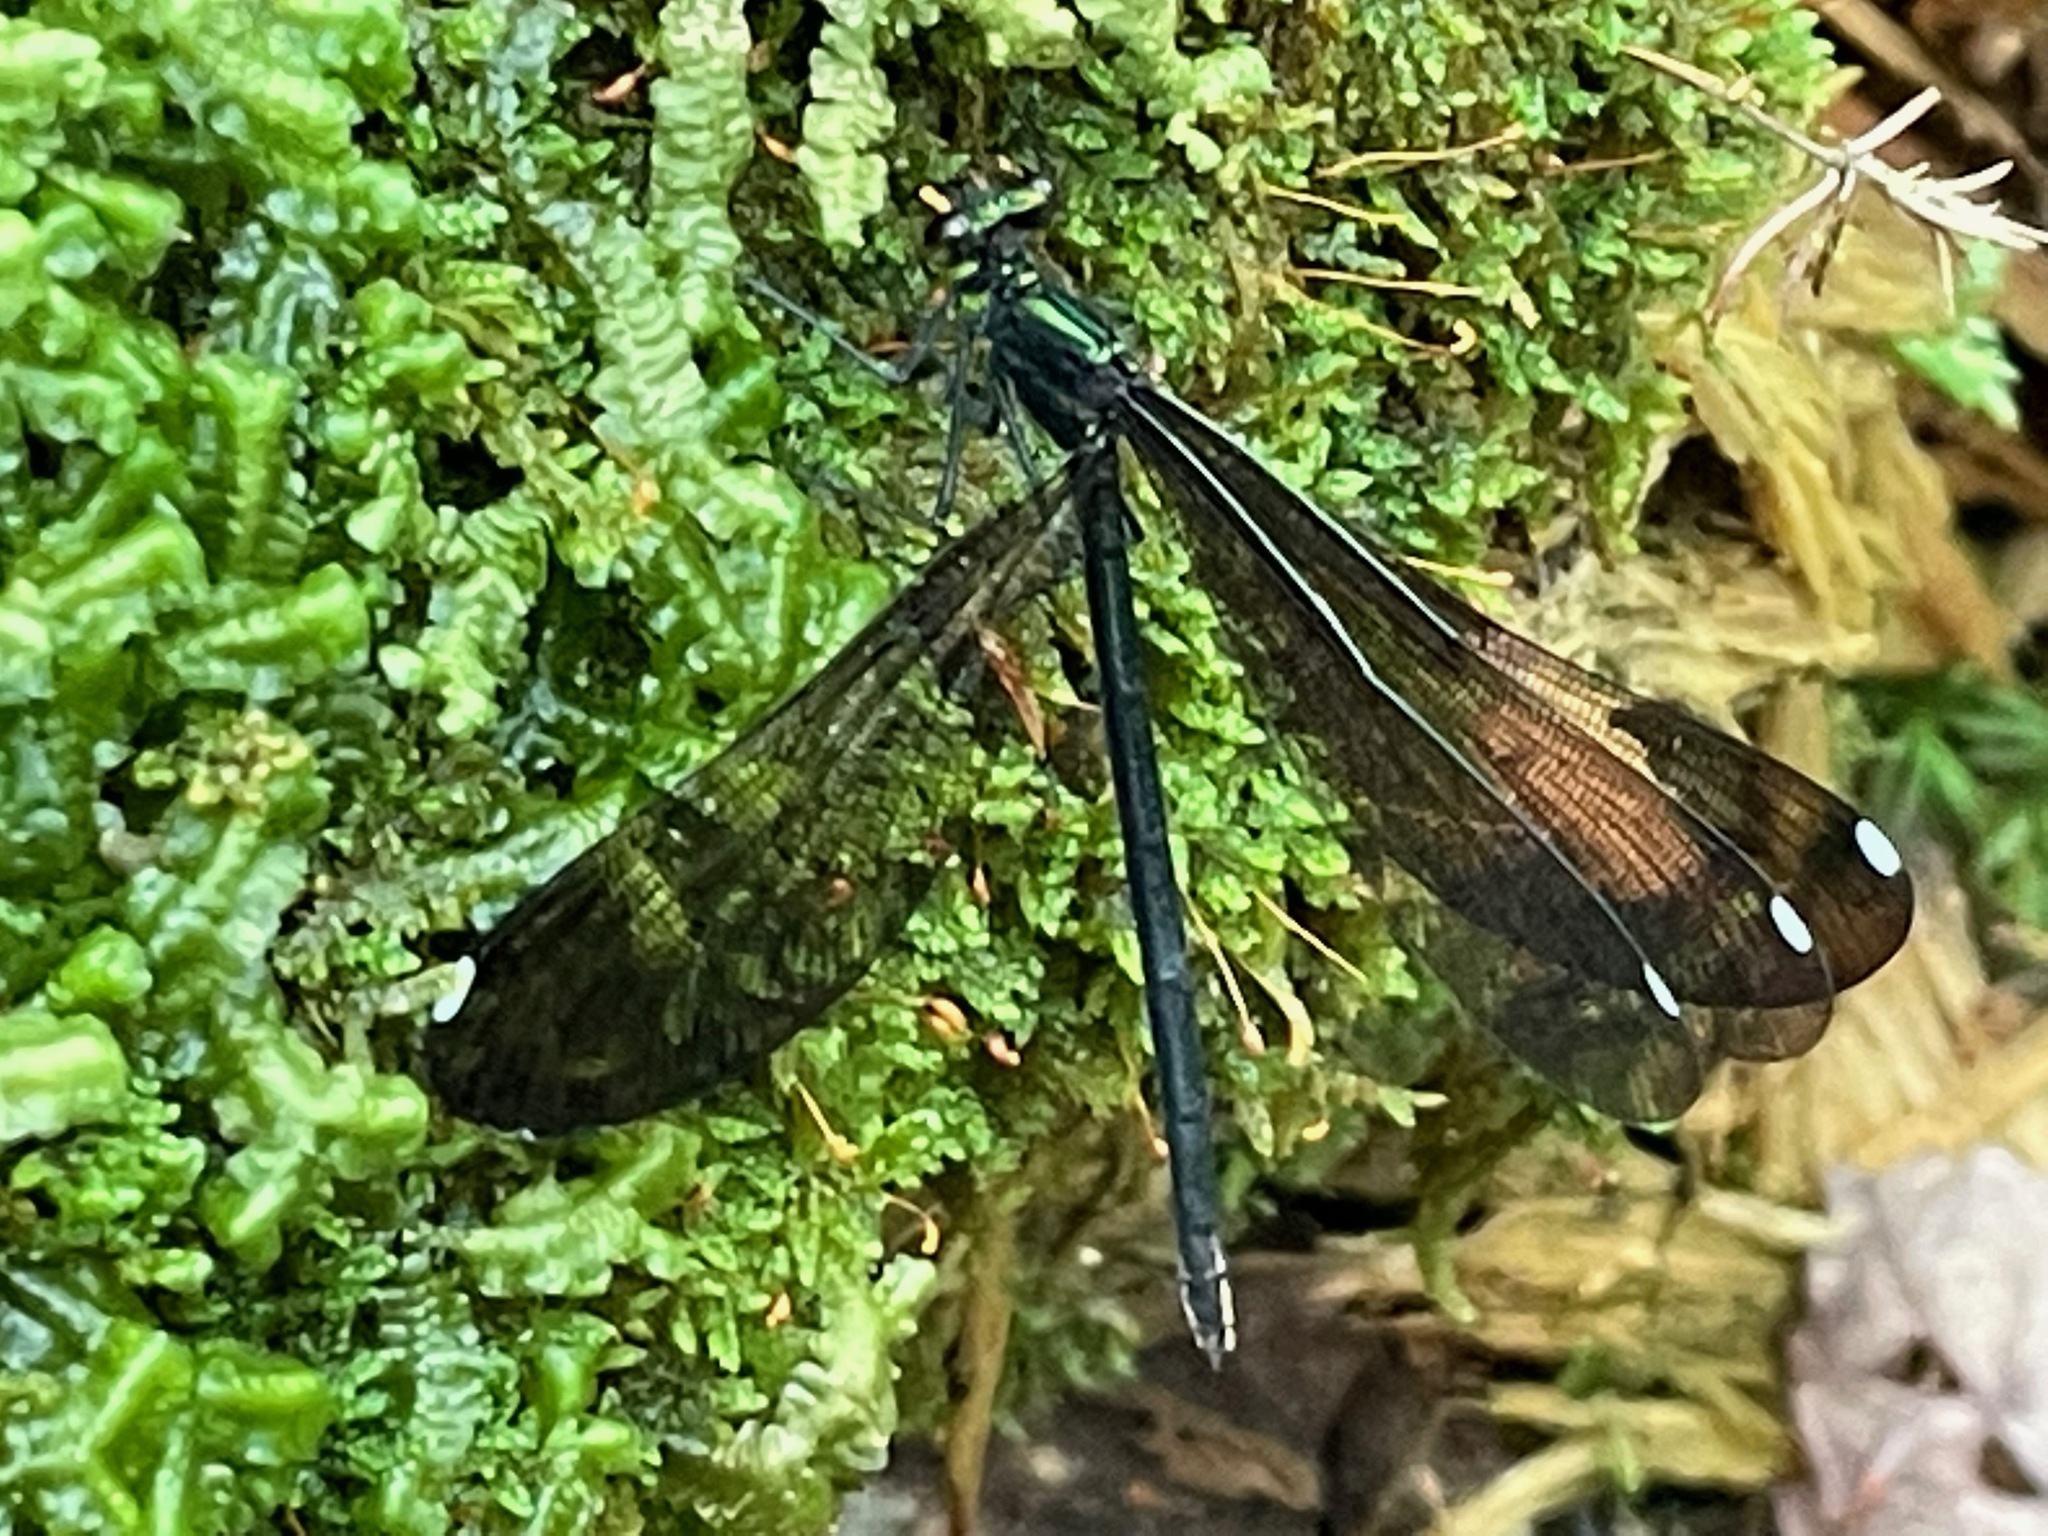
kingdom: Animalia
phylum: Arthropoda
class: Insecta
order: Odonata
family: Calopterygidae
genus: Calopteryx
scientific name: Calopteryx maculata
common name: Ebony jewelwing
